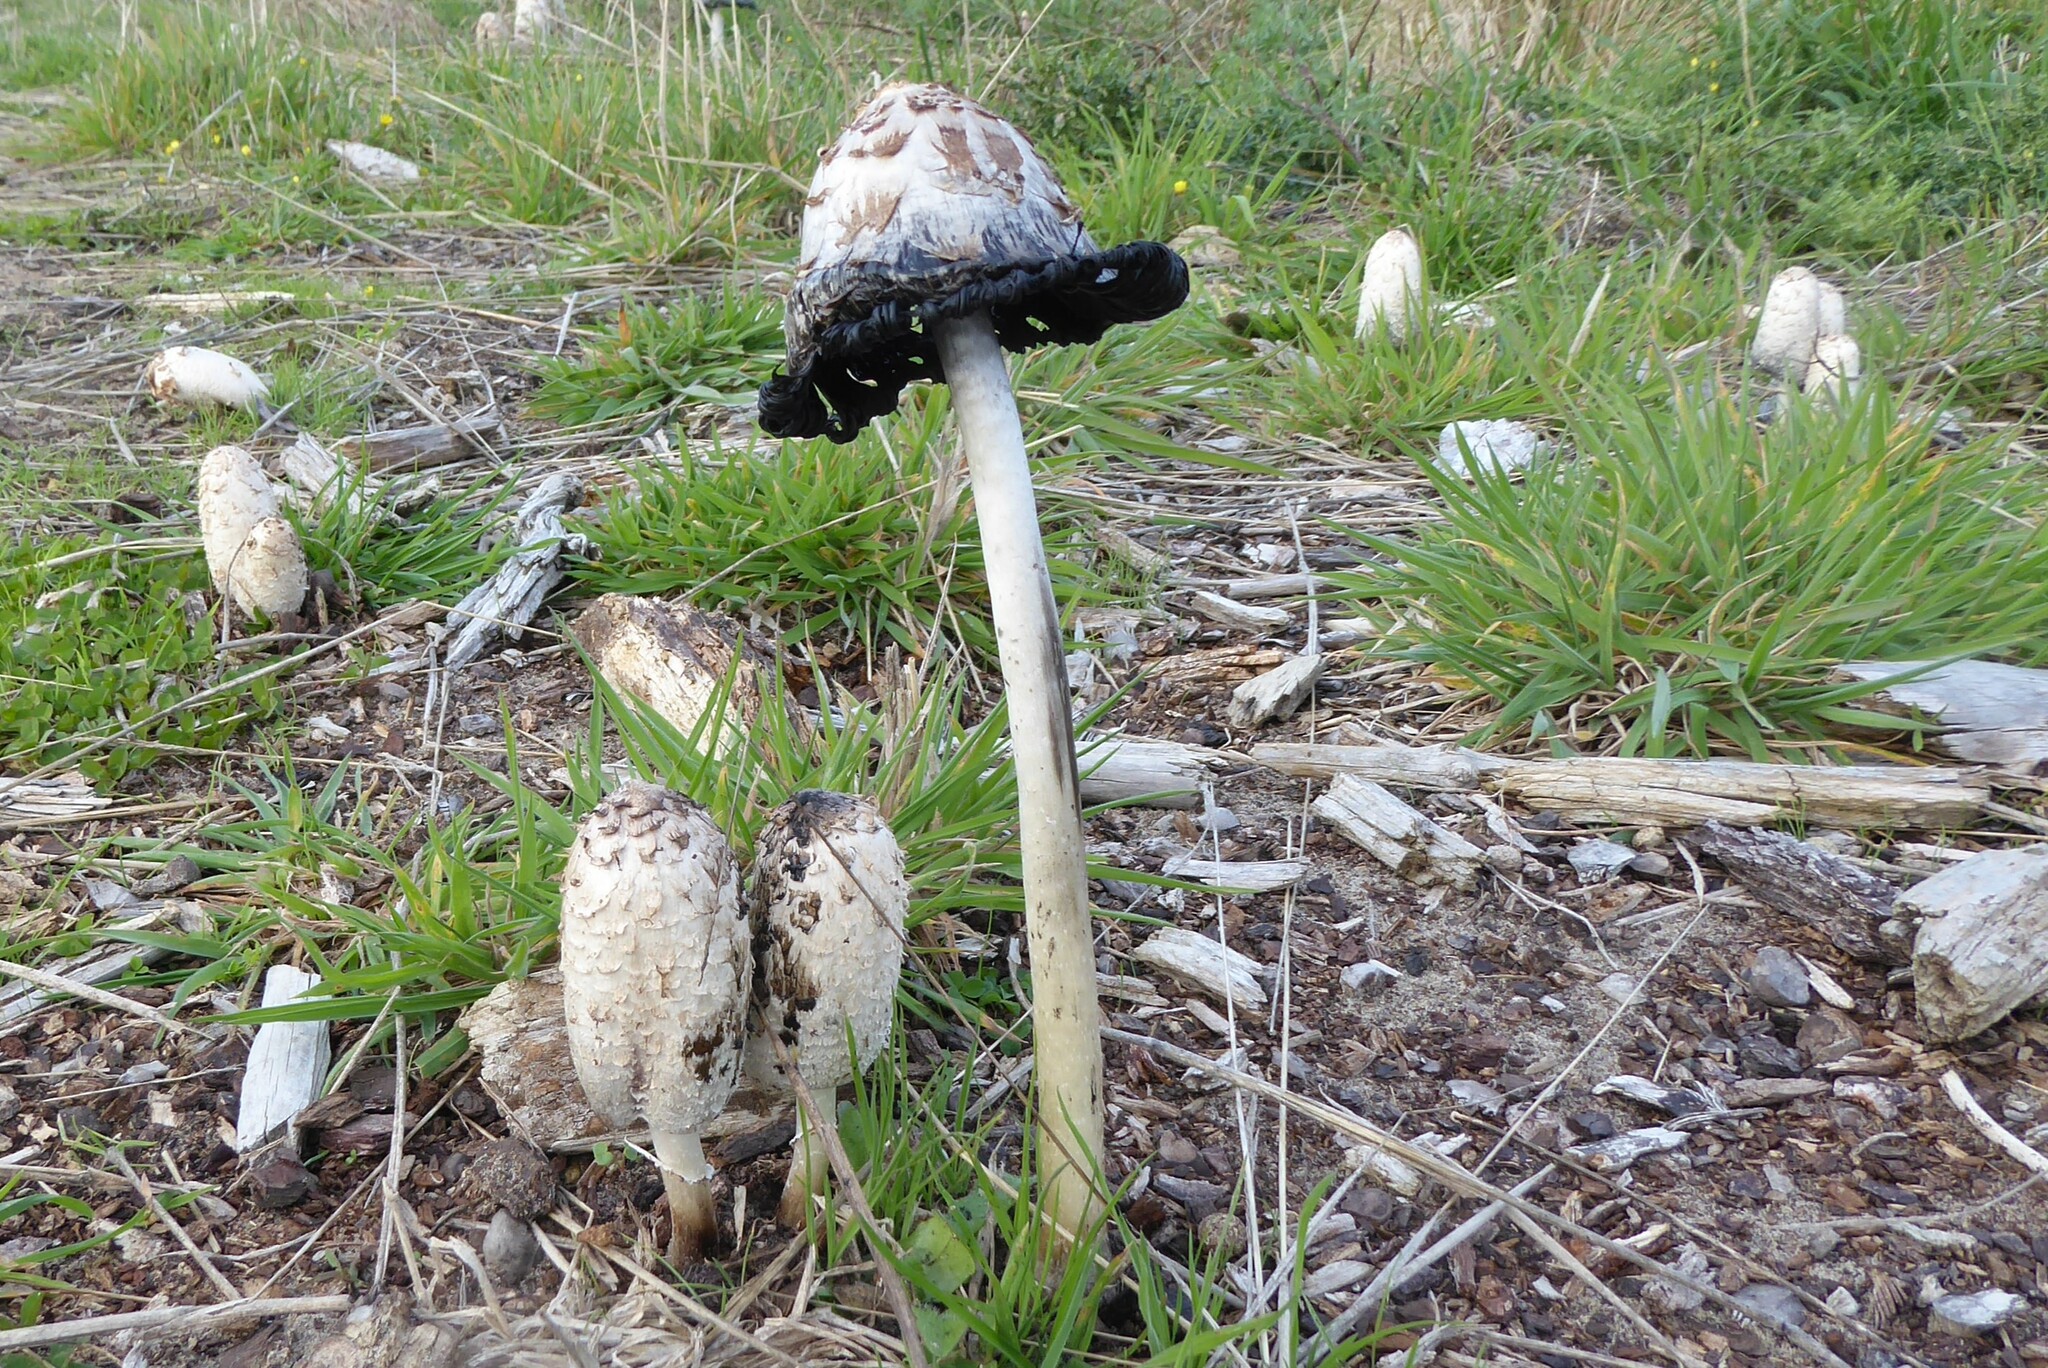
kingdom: Fungi
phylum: Basidiomycota
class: Agaricomycetes
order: Agaricales
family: Agaricaceae
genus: Coprinus
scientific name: Coprinus comatus
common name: Lawyer's wig
